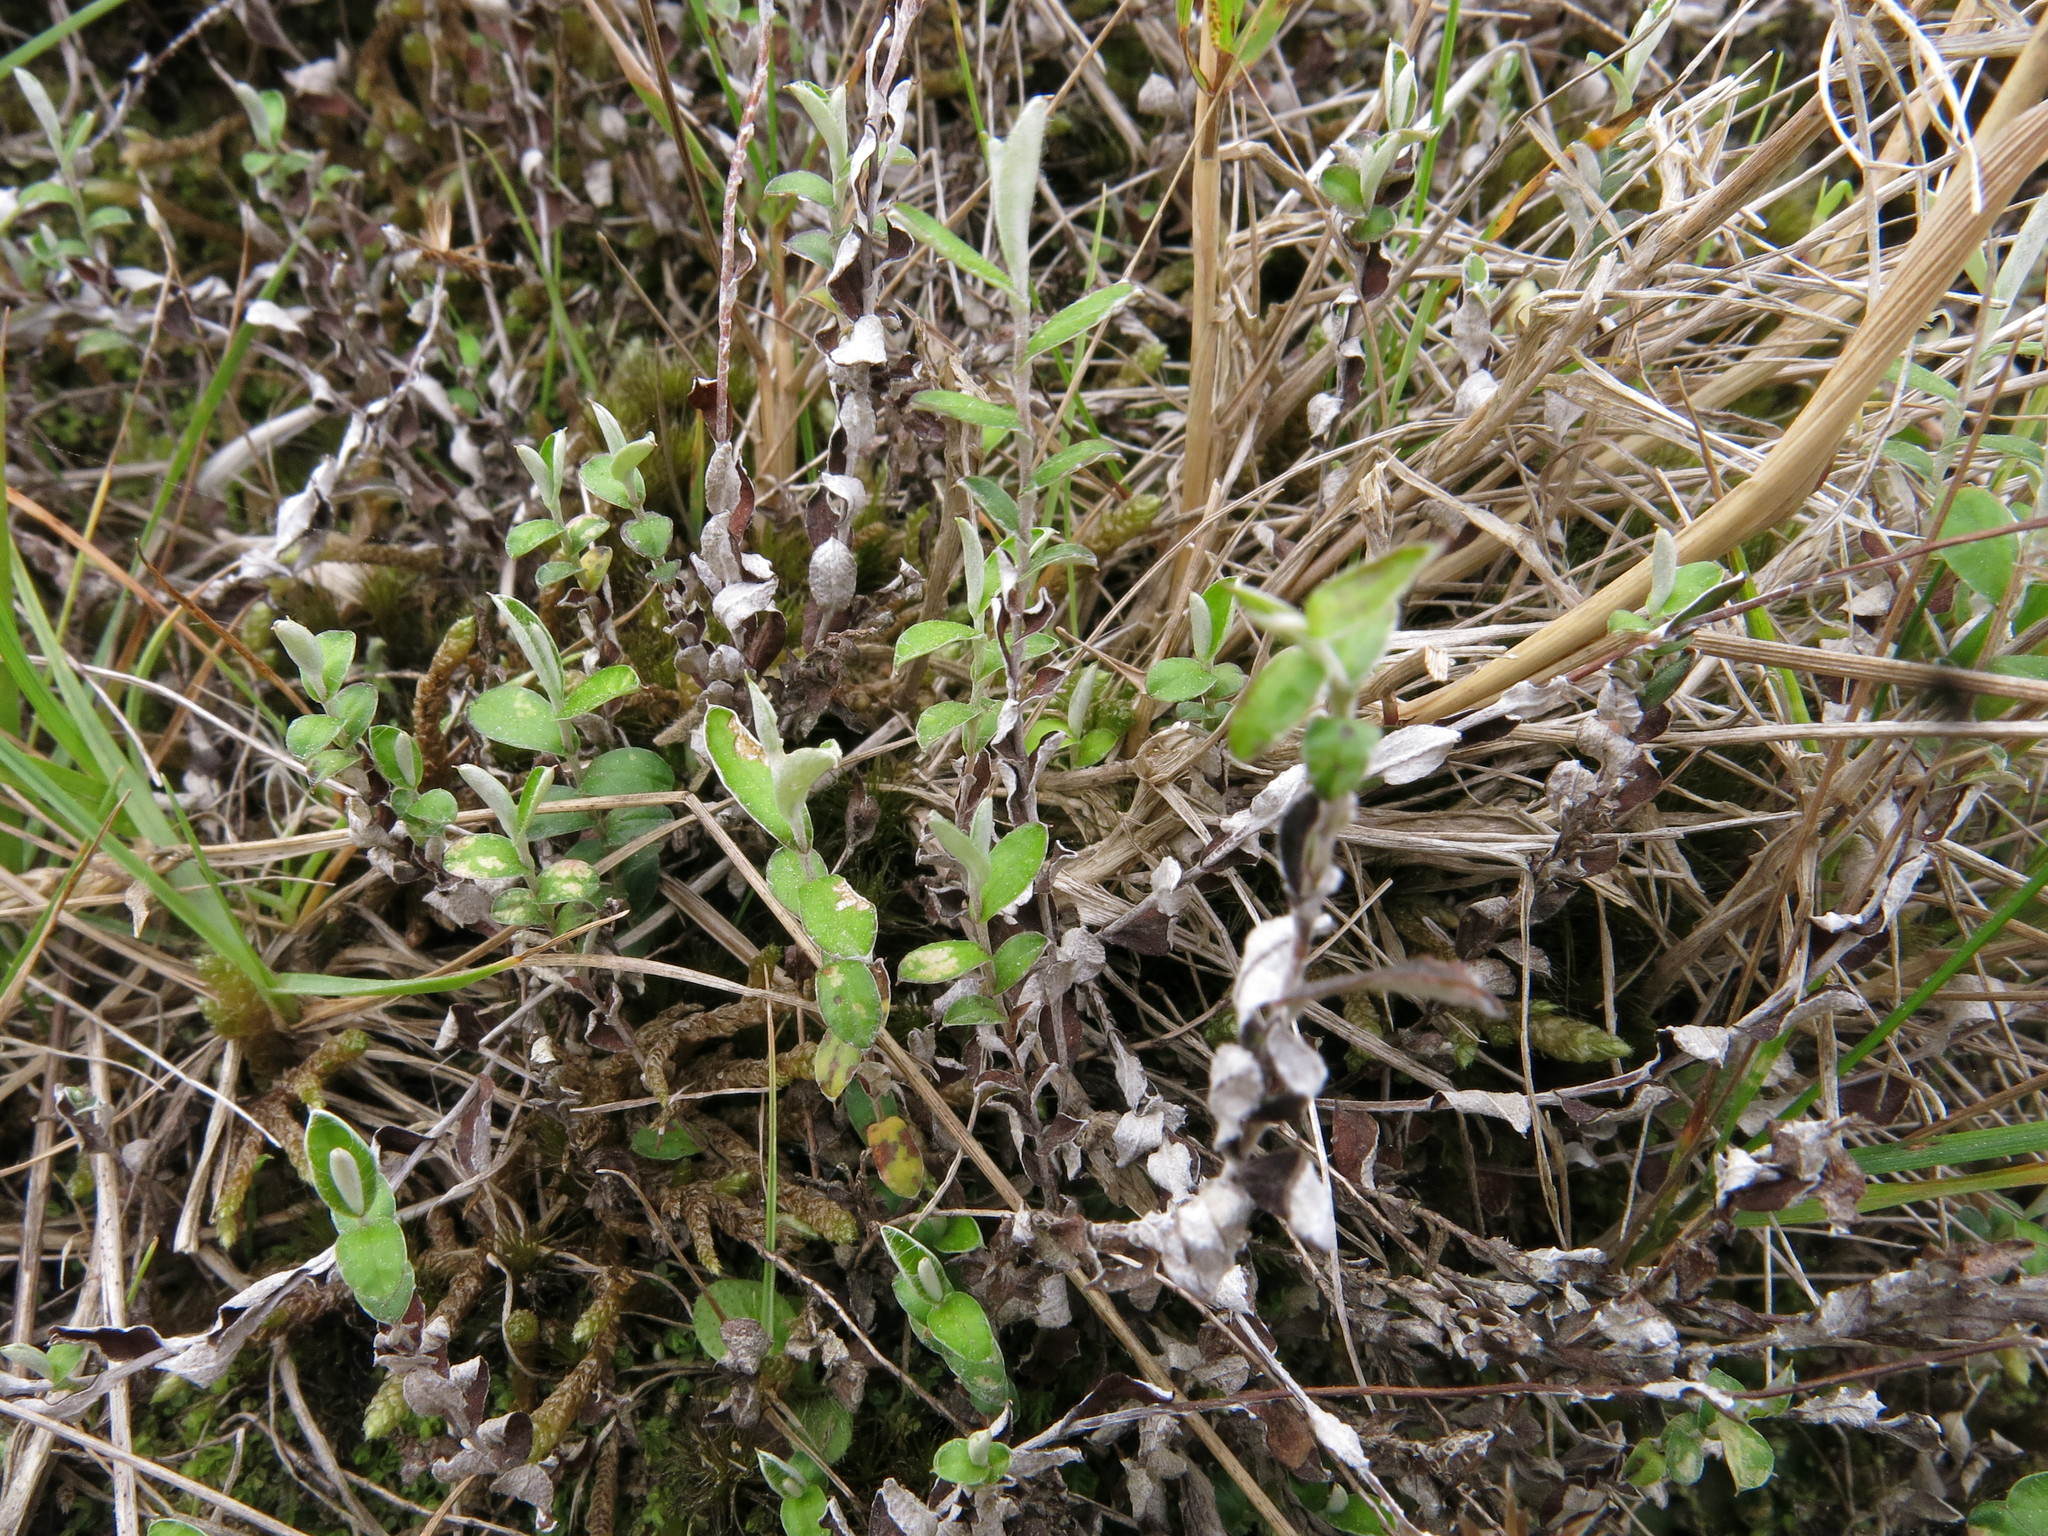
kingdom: Plantae
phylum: Tracheophyta
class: Magnoliopsida
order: Asterales
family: Asteraceae
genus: Helichrysum
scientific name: Helichrysum filicaule
